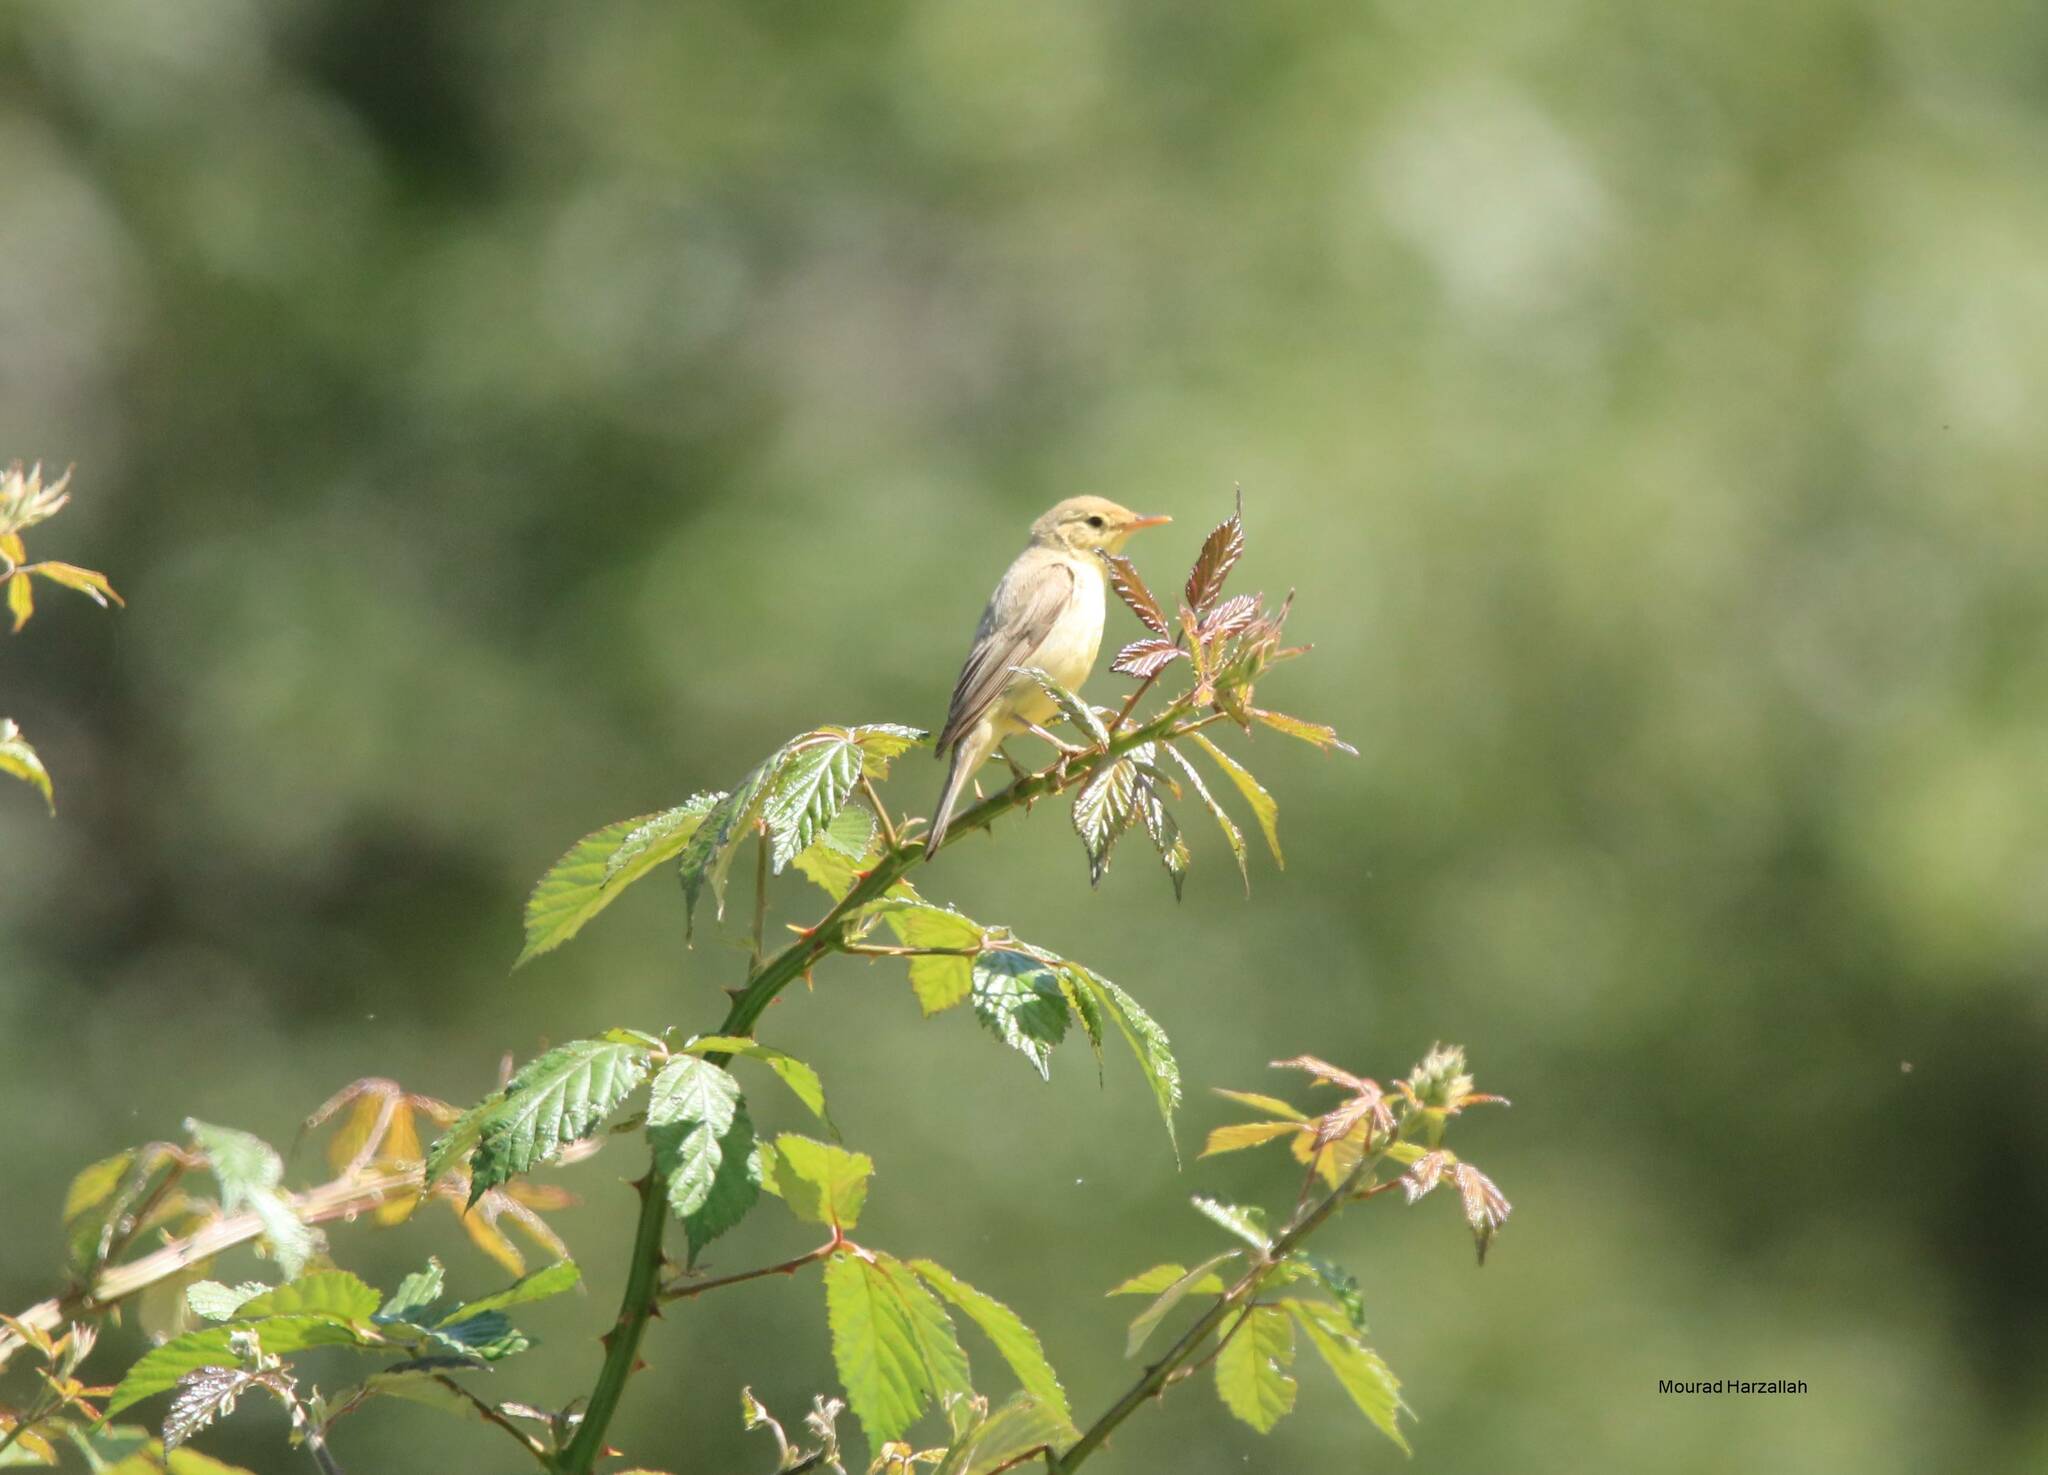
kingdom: Animalia
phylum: Chordata
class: Aves
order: Passeriformes
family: Acrocephalidae
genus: Hippolais
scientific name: Hippolais polyglotta
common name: Melodious warbler
